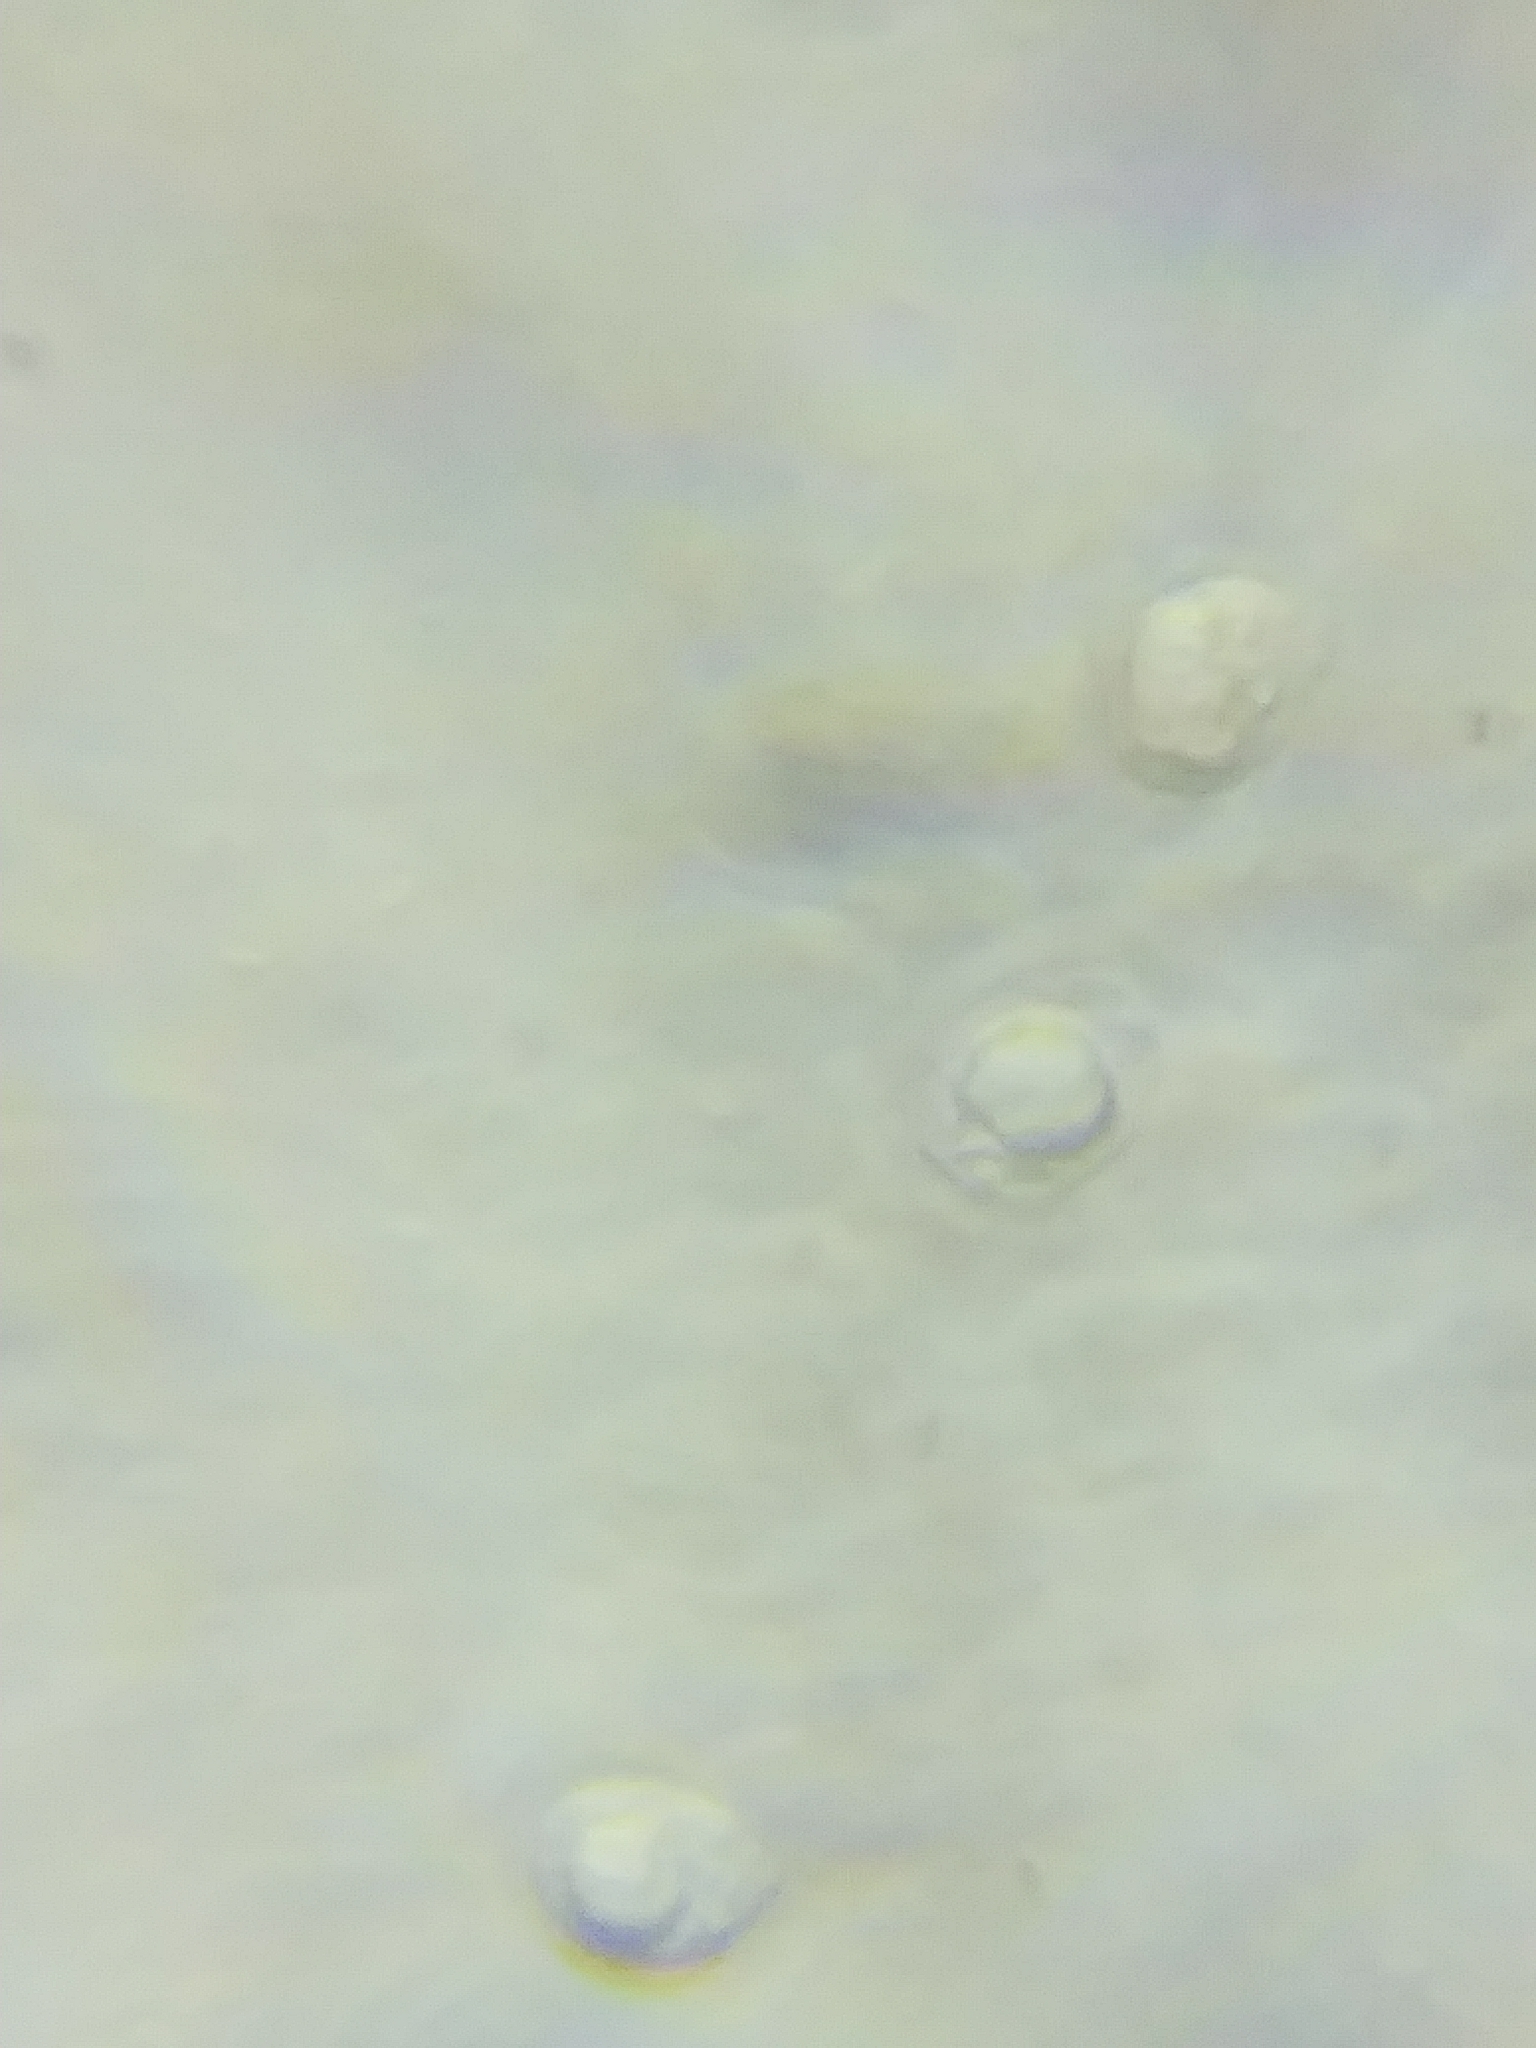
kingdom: Fungi
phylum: Basidiomycota
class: Agaricomycetes
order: Agaricales
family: Mycenaceae
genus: Mycena
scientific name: Mycena inclinata
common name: Clustered bonnet
